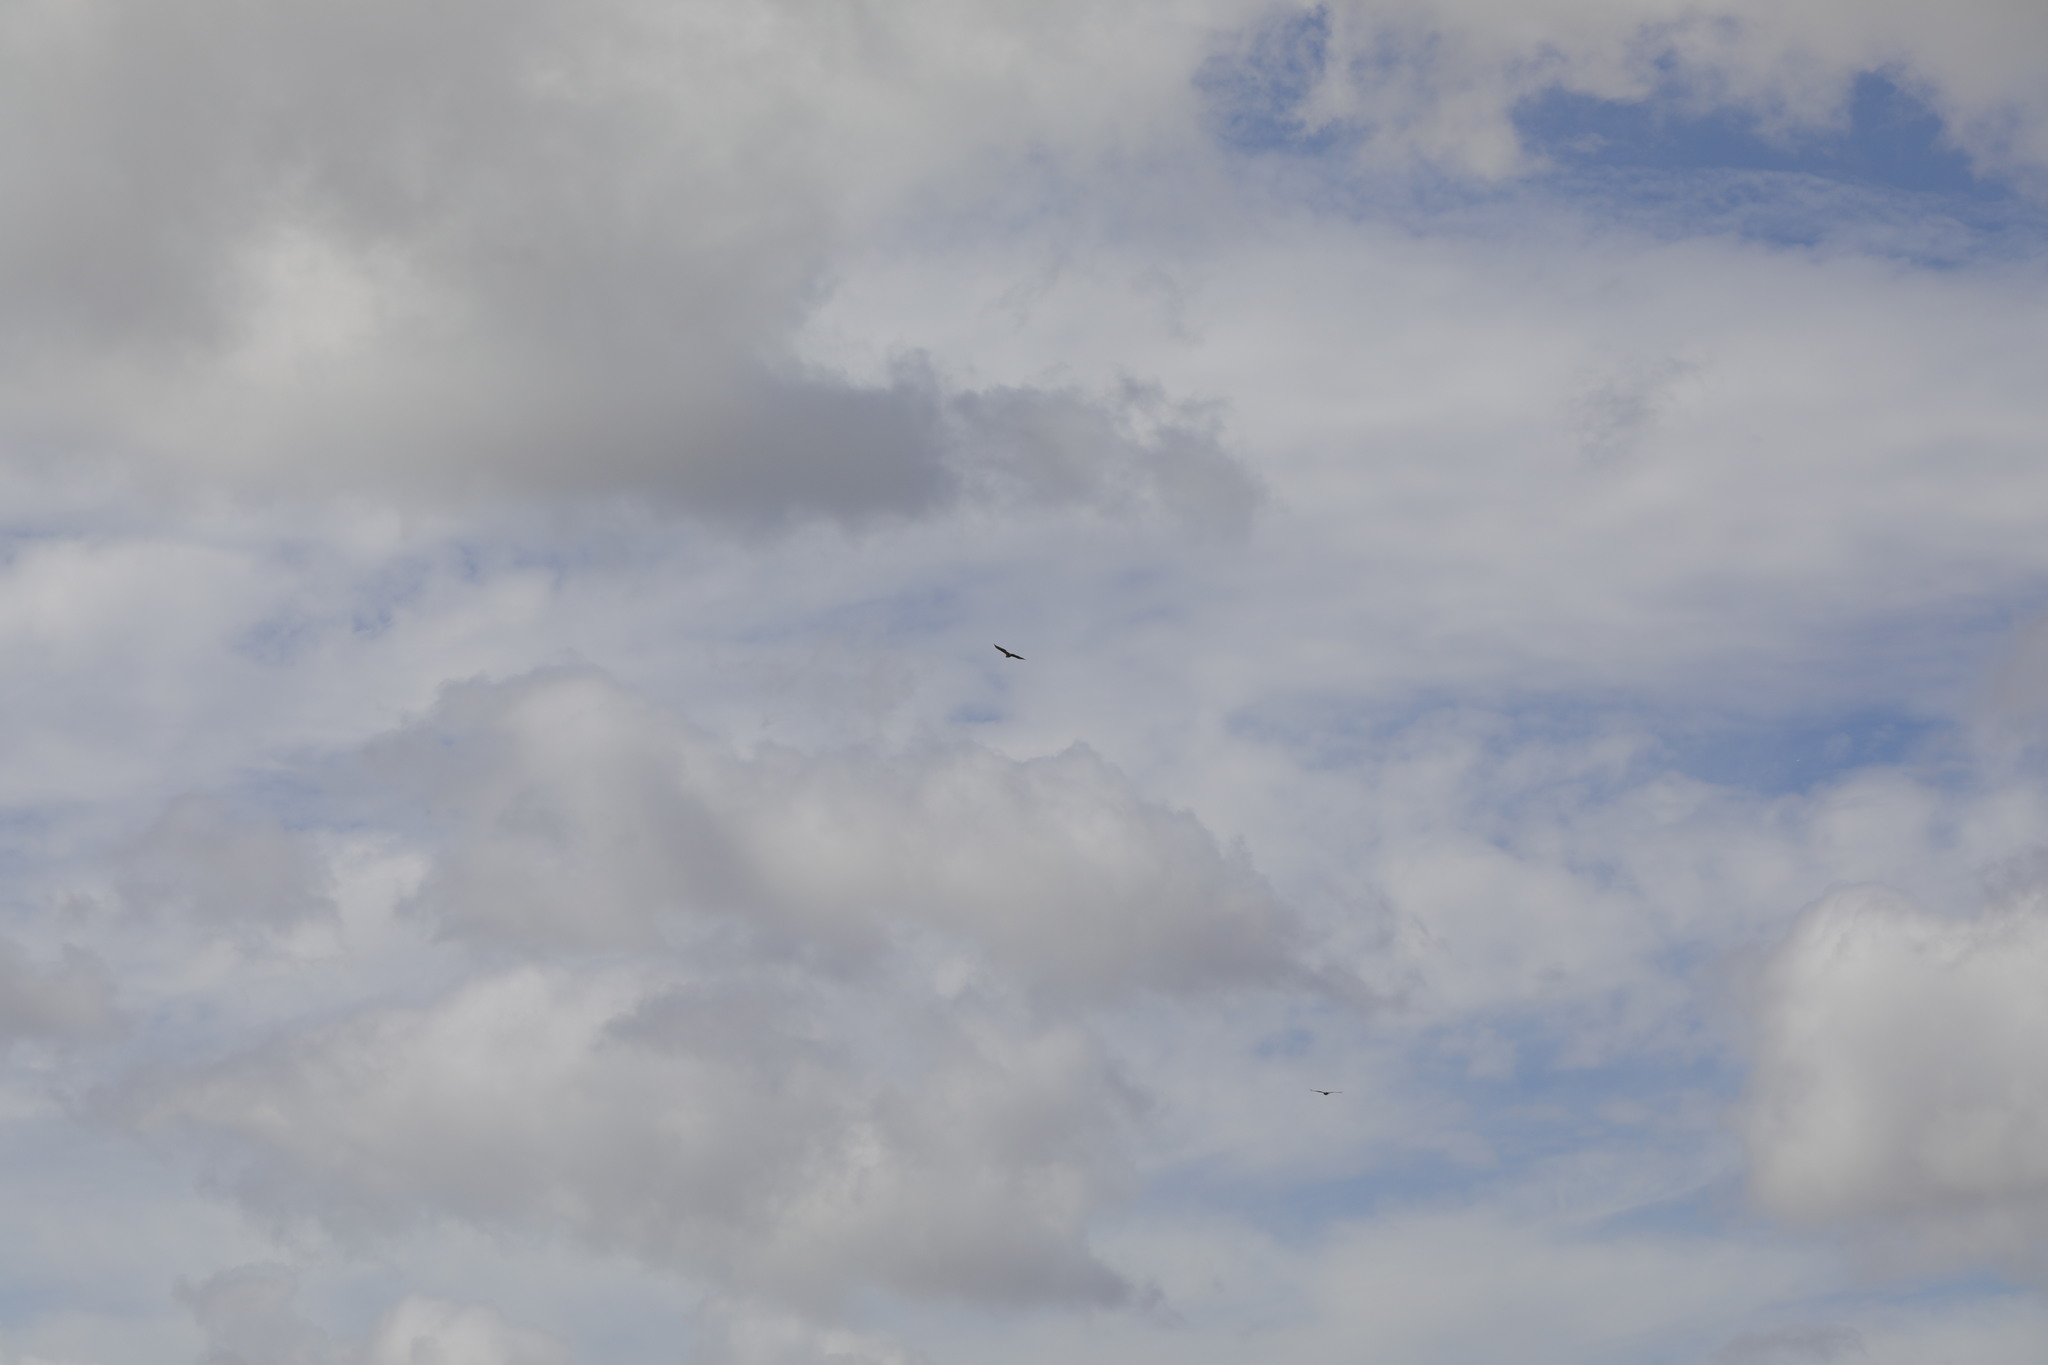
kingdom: Animalia
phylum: Chordata
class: Aves
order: Accipitriformes
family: Accipitridae
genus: Buteo
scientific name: Buteo buteo
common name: Common buzzard
